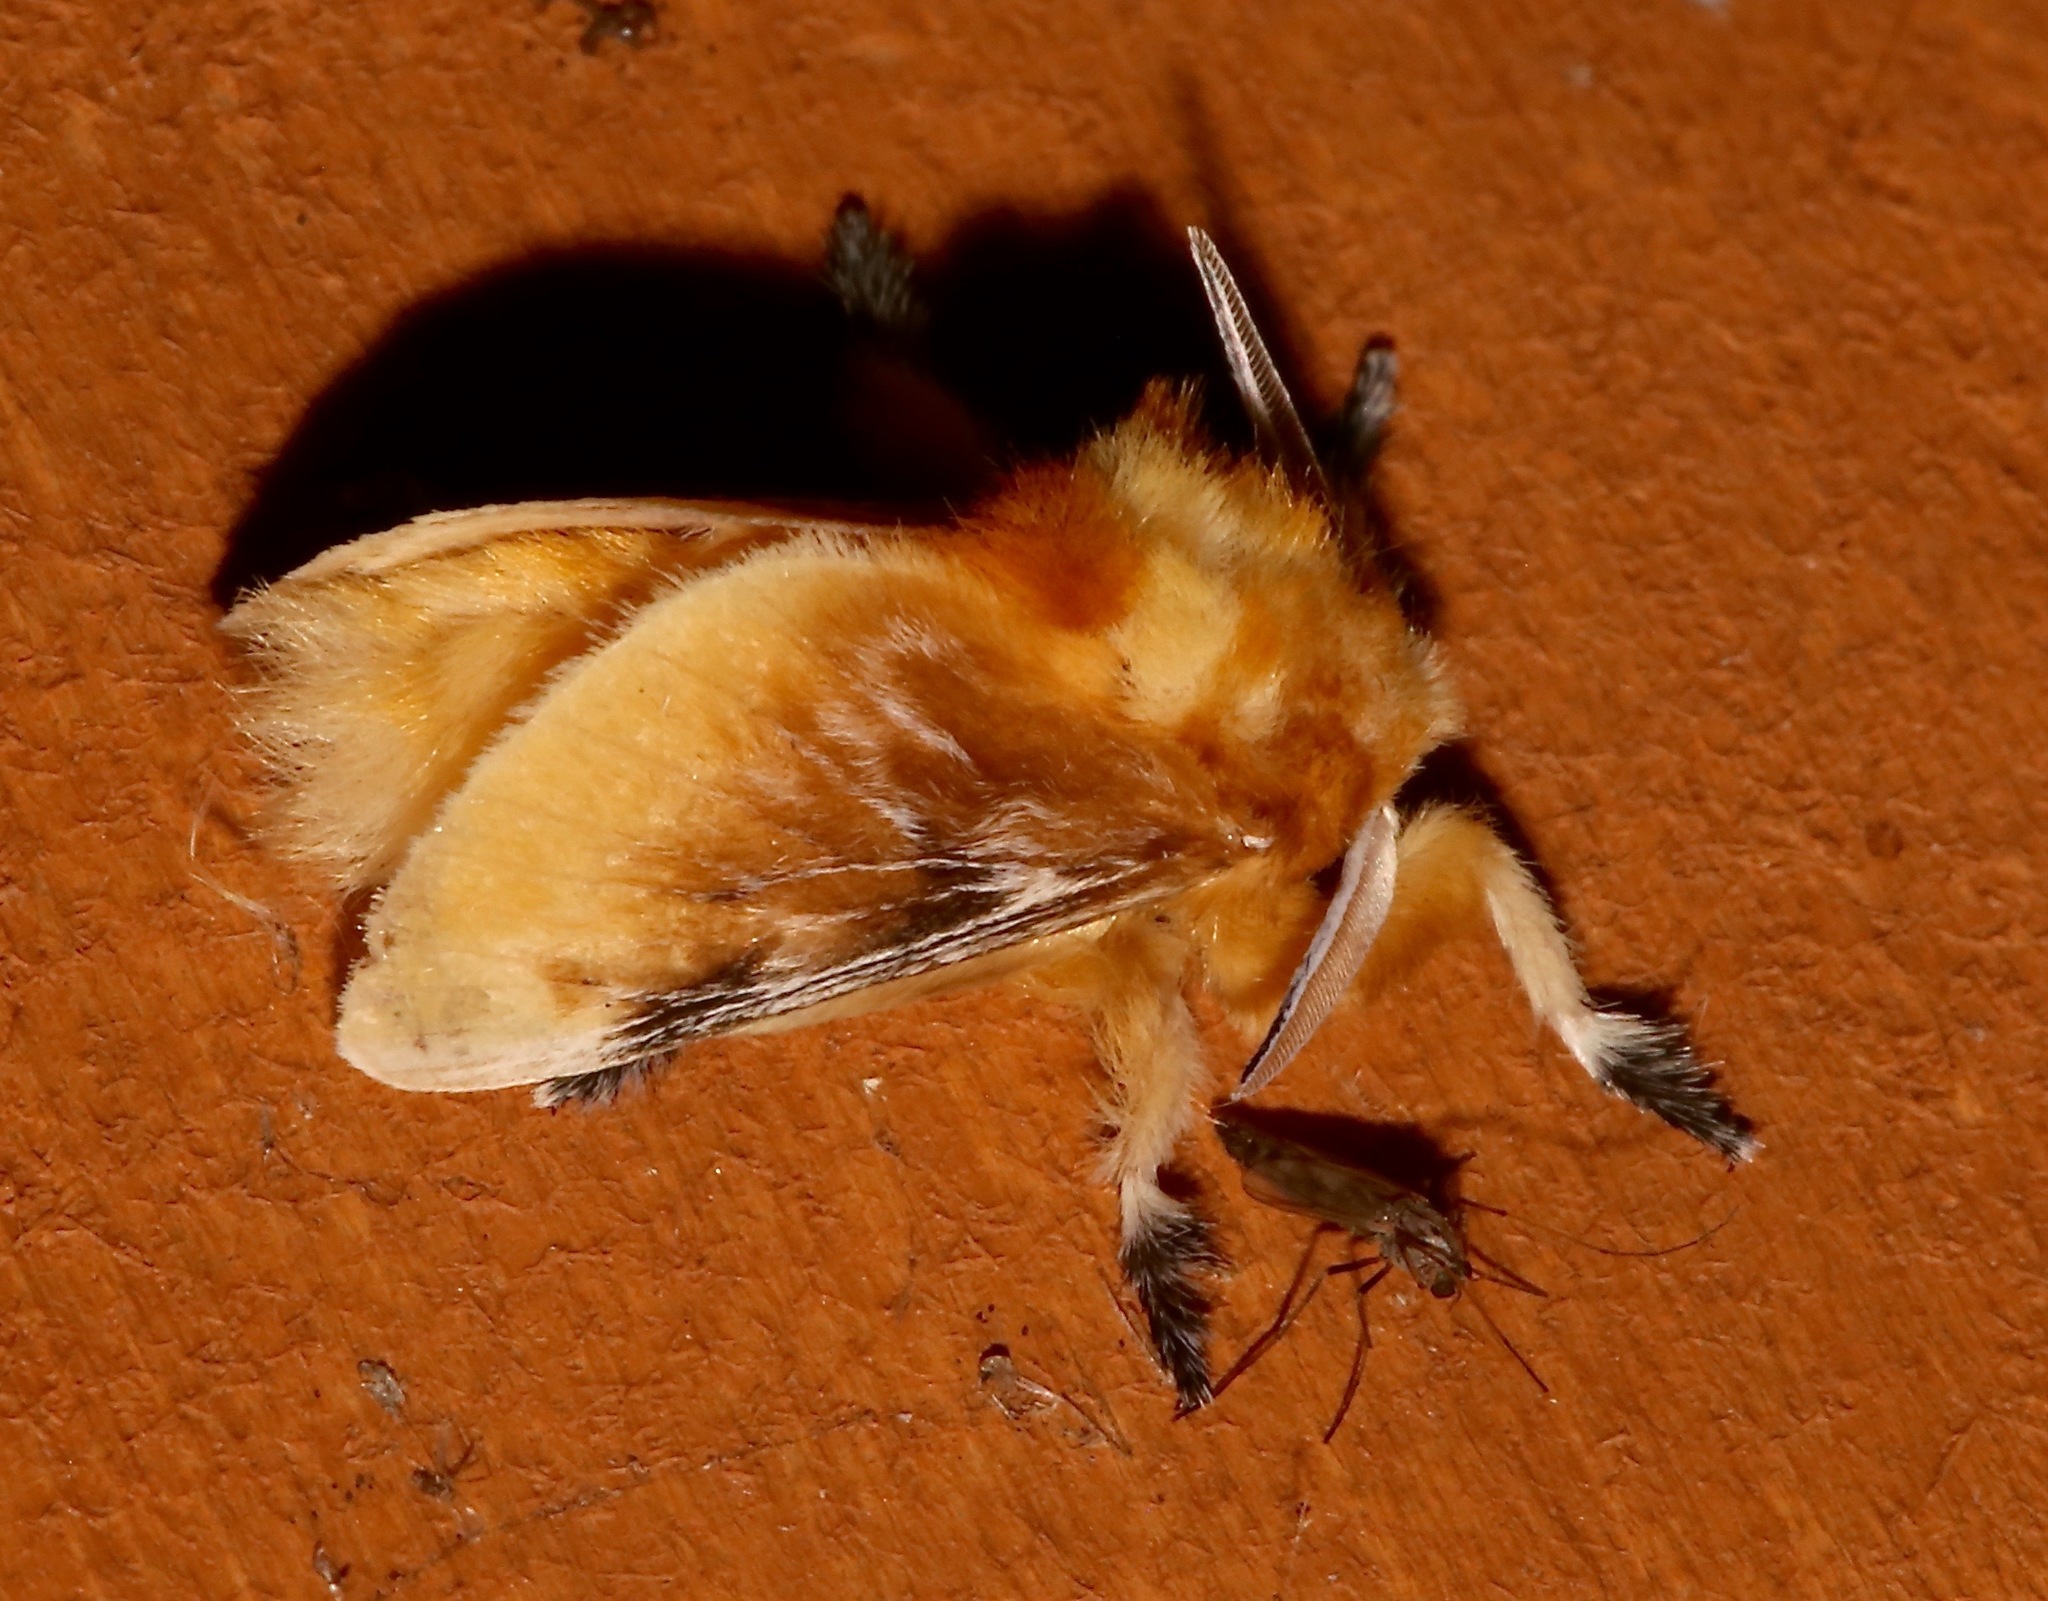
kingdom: Animalia
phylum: Arthropoda
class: Insecta
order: Lepidoptera
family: Megalopygidae
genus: Megalopyge
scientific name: Megalopyge opercularis
